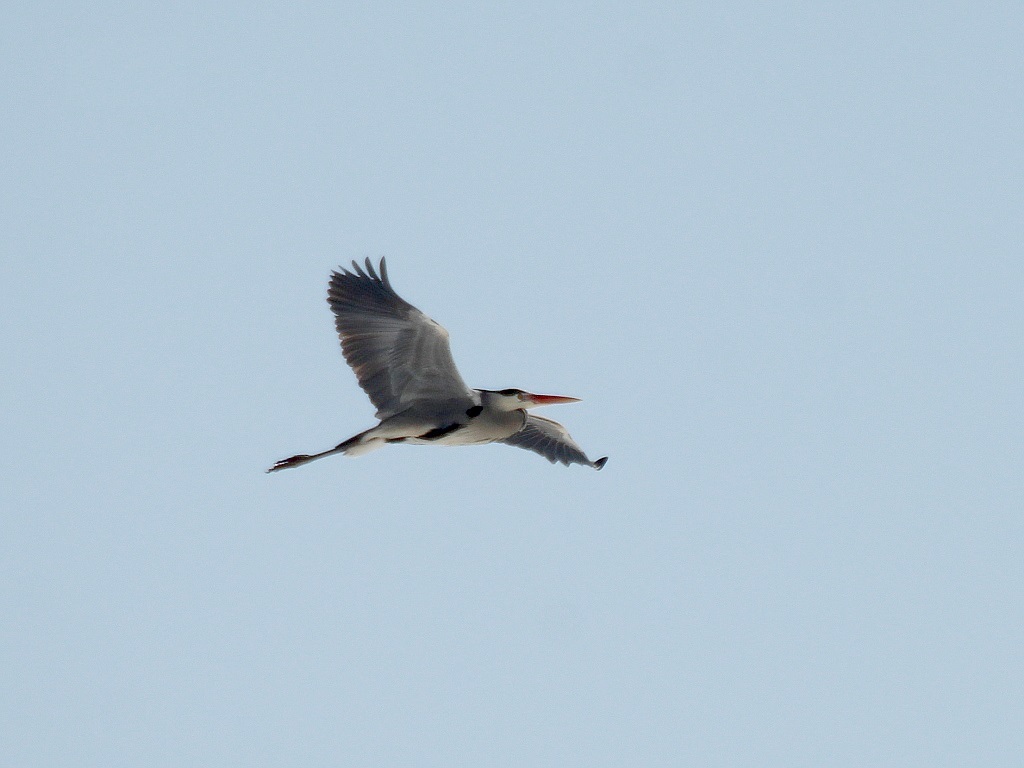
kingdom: Animalia
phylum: Chordata
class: Aves
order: Pelecaniformes
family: Ardeidae
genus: Ardea
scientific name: Ardea cinerea
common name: Grey heron
